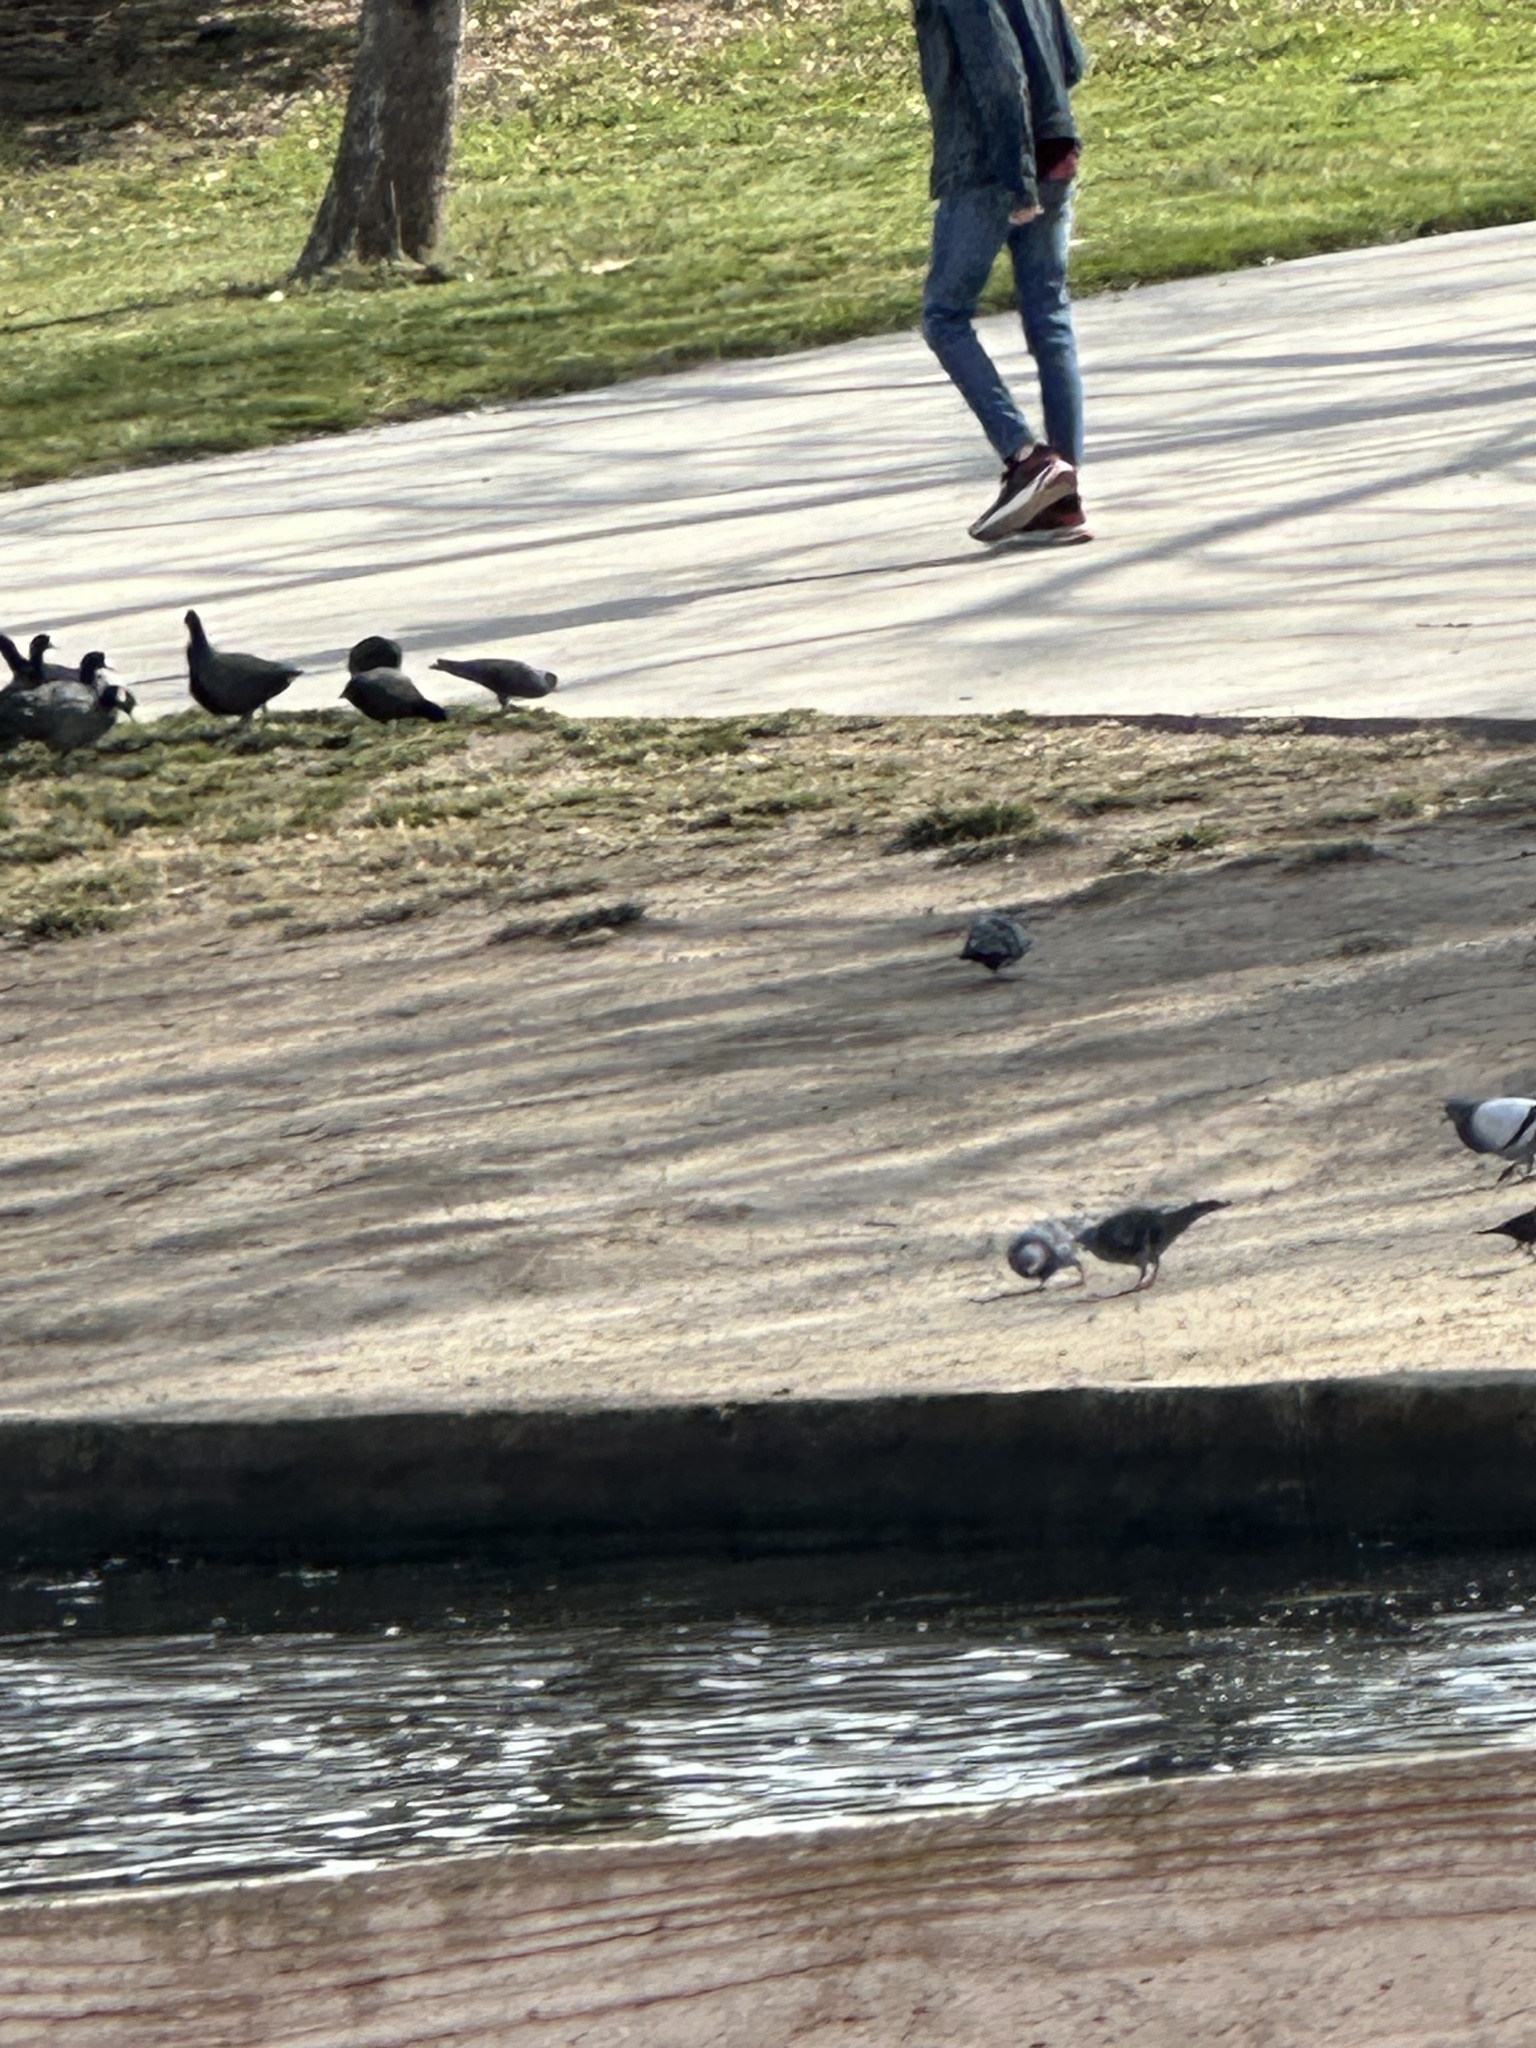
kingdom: Animalia
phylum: Chordata
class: Aves
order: Columbiformes
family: Columbidae
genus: Columba
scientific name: Columba livia
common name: Rock pigeon
